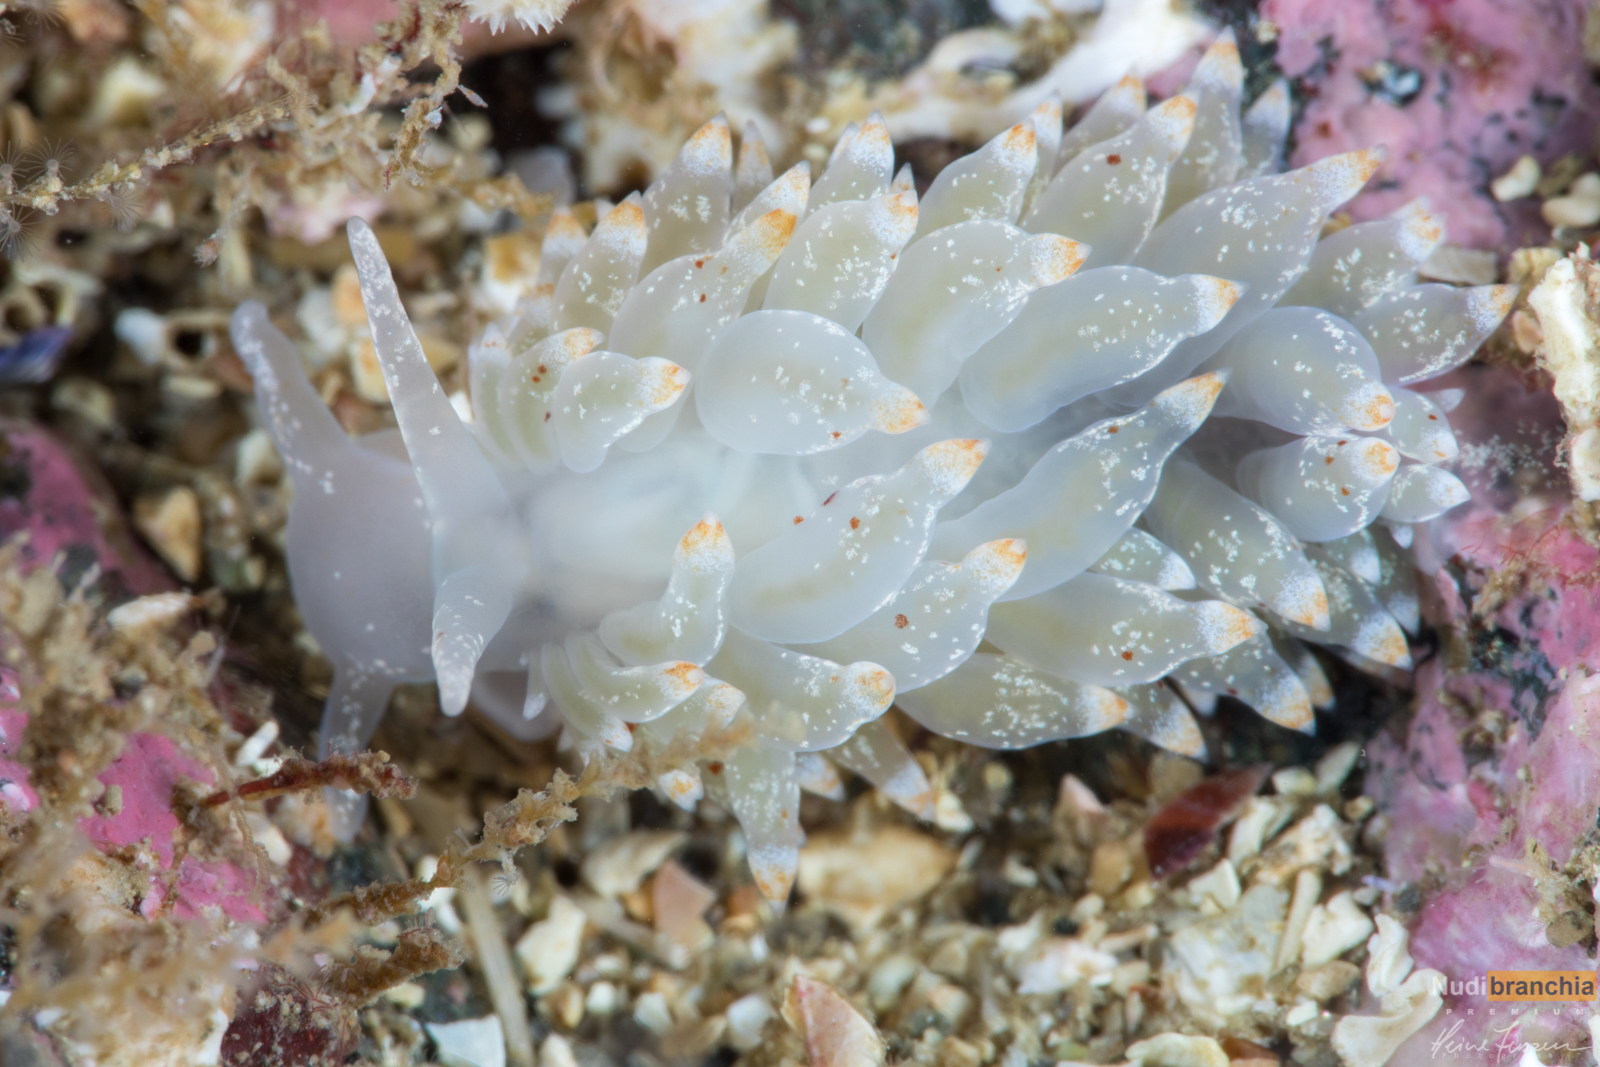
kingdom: Animalia
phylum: Mollusca
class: Gastropoda
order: Nudibranchia
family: Eubranchidae
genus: Amphorina
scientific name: Amphorina pallida
